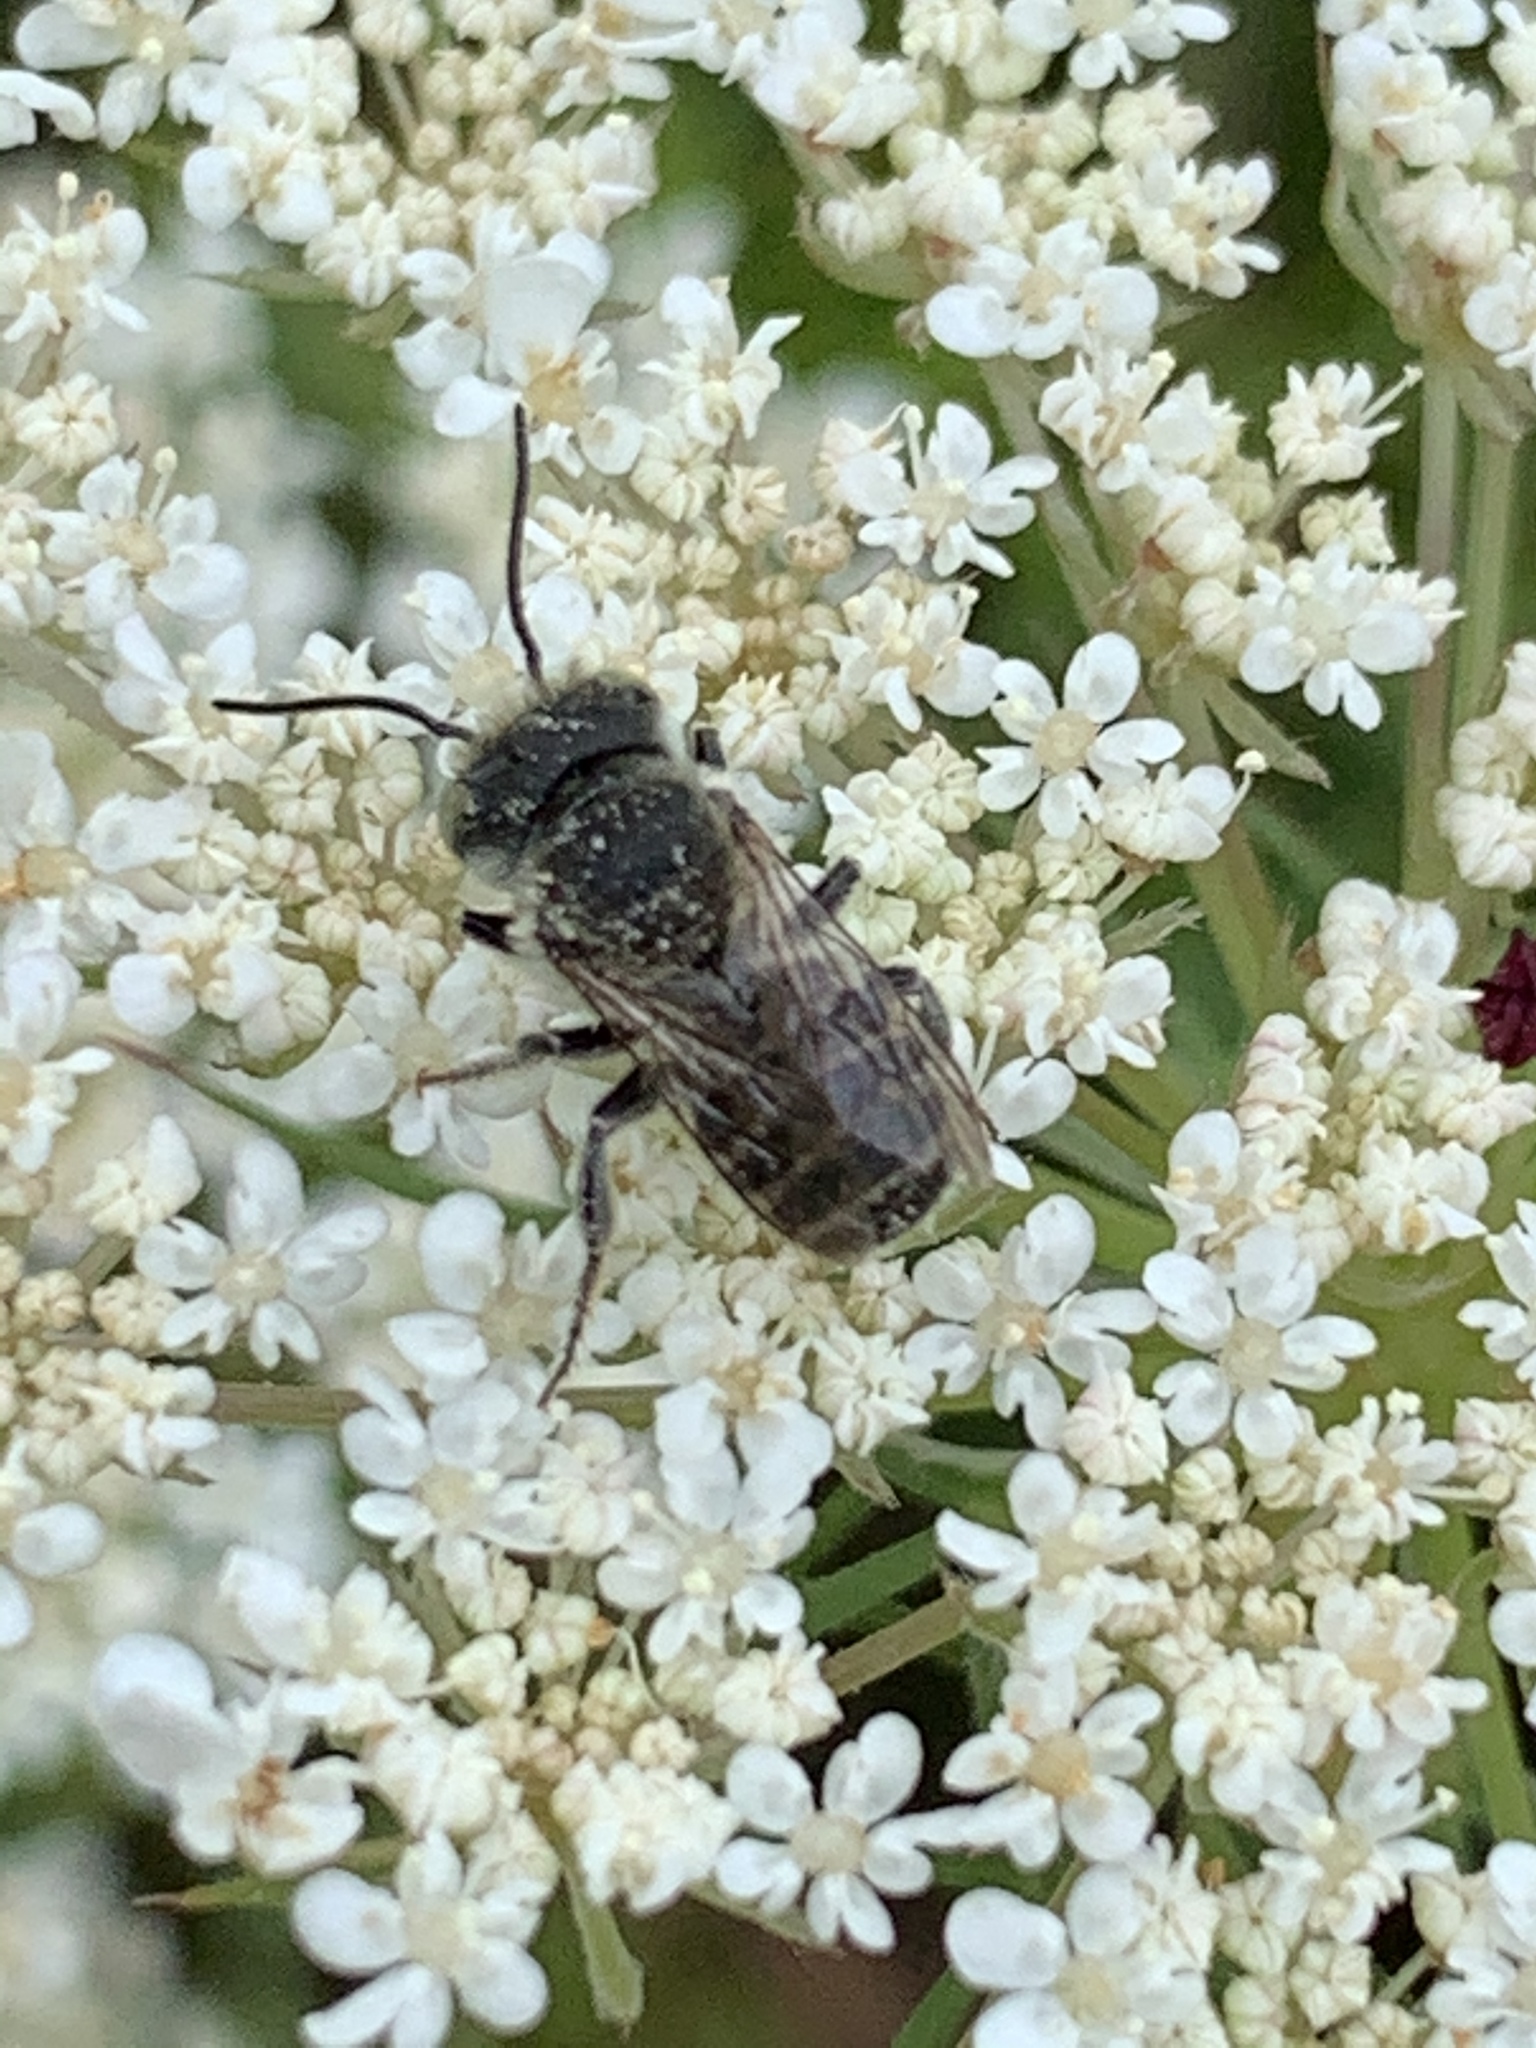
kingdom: Animalia
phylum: Arthropoda
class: Insecta
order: Hymenoptera
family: Megachilidae
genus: Megachile
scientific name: Megachile
